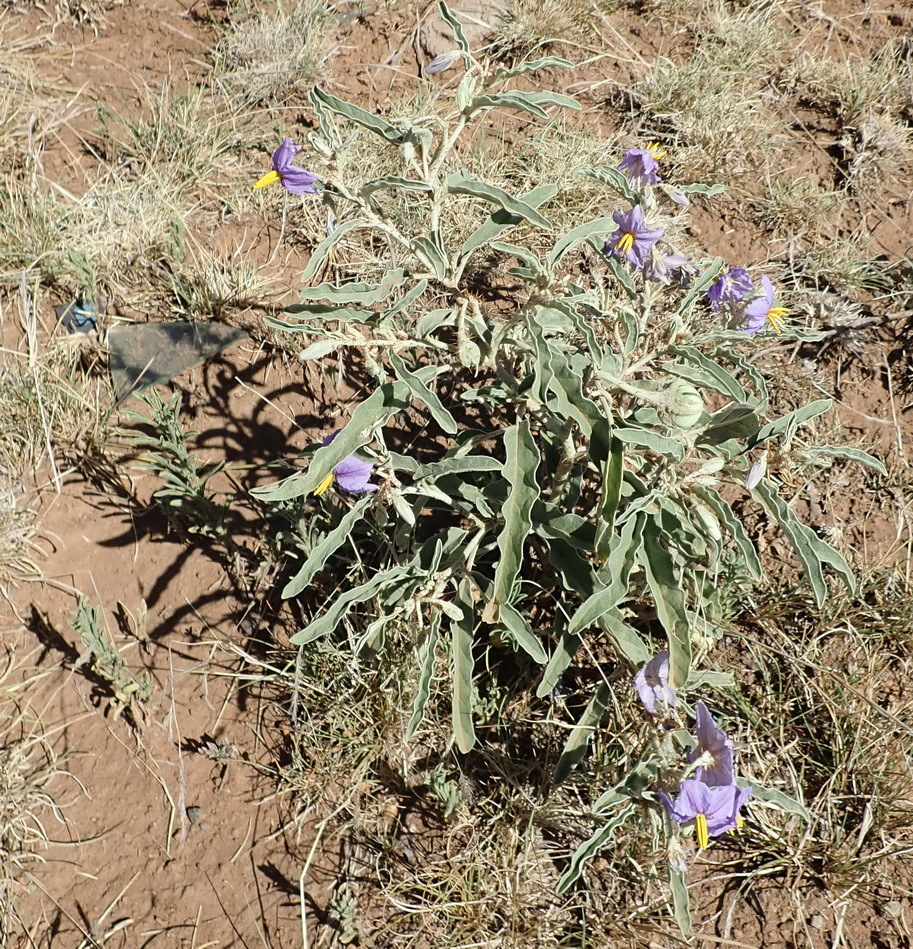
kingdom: Plantae
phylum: Tracheophyta
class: Magnoliopsida
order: Solanales
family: Solanaceae
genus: Solanum
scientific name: Solanum elaeagnifolium
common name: Silverleaf nightshade
